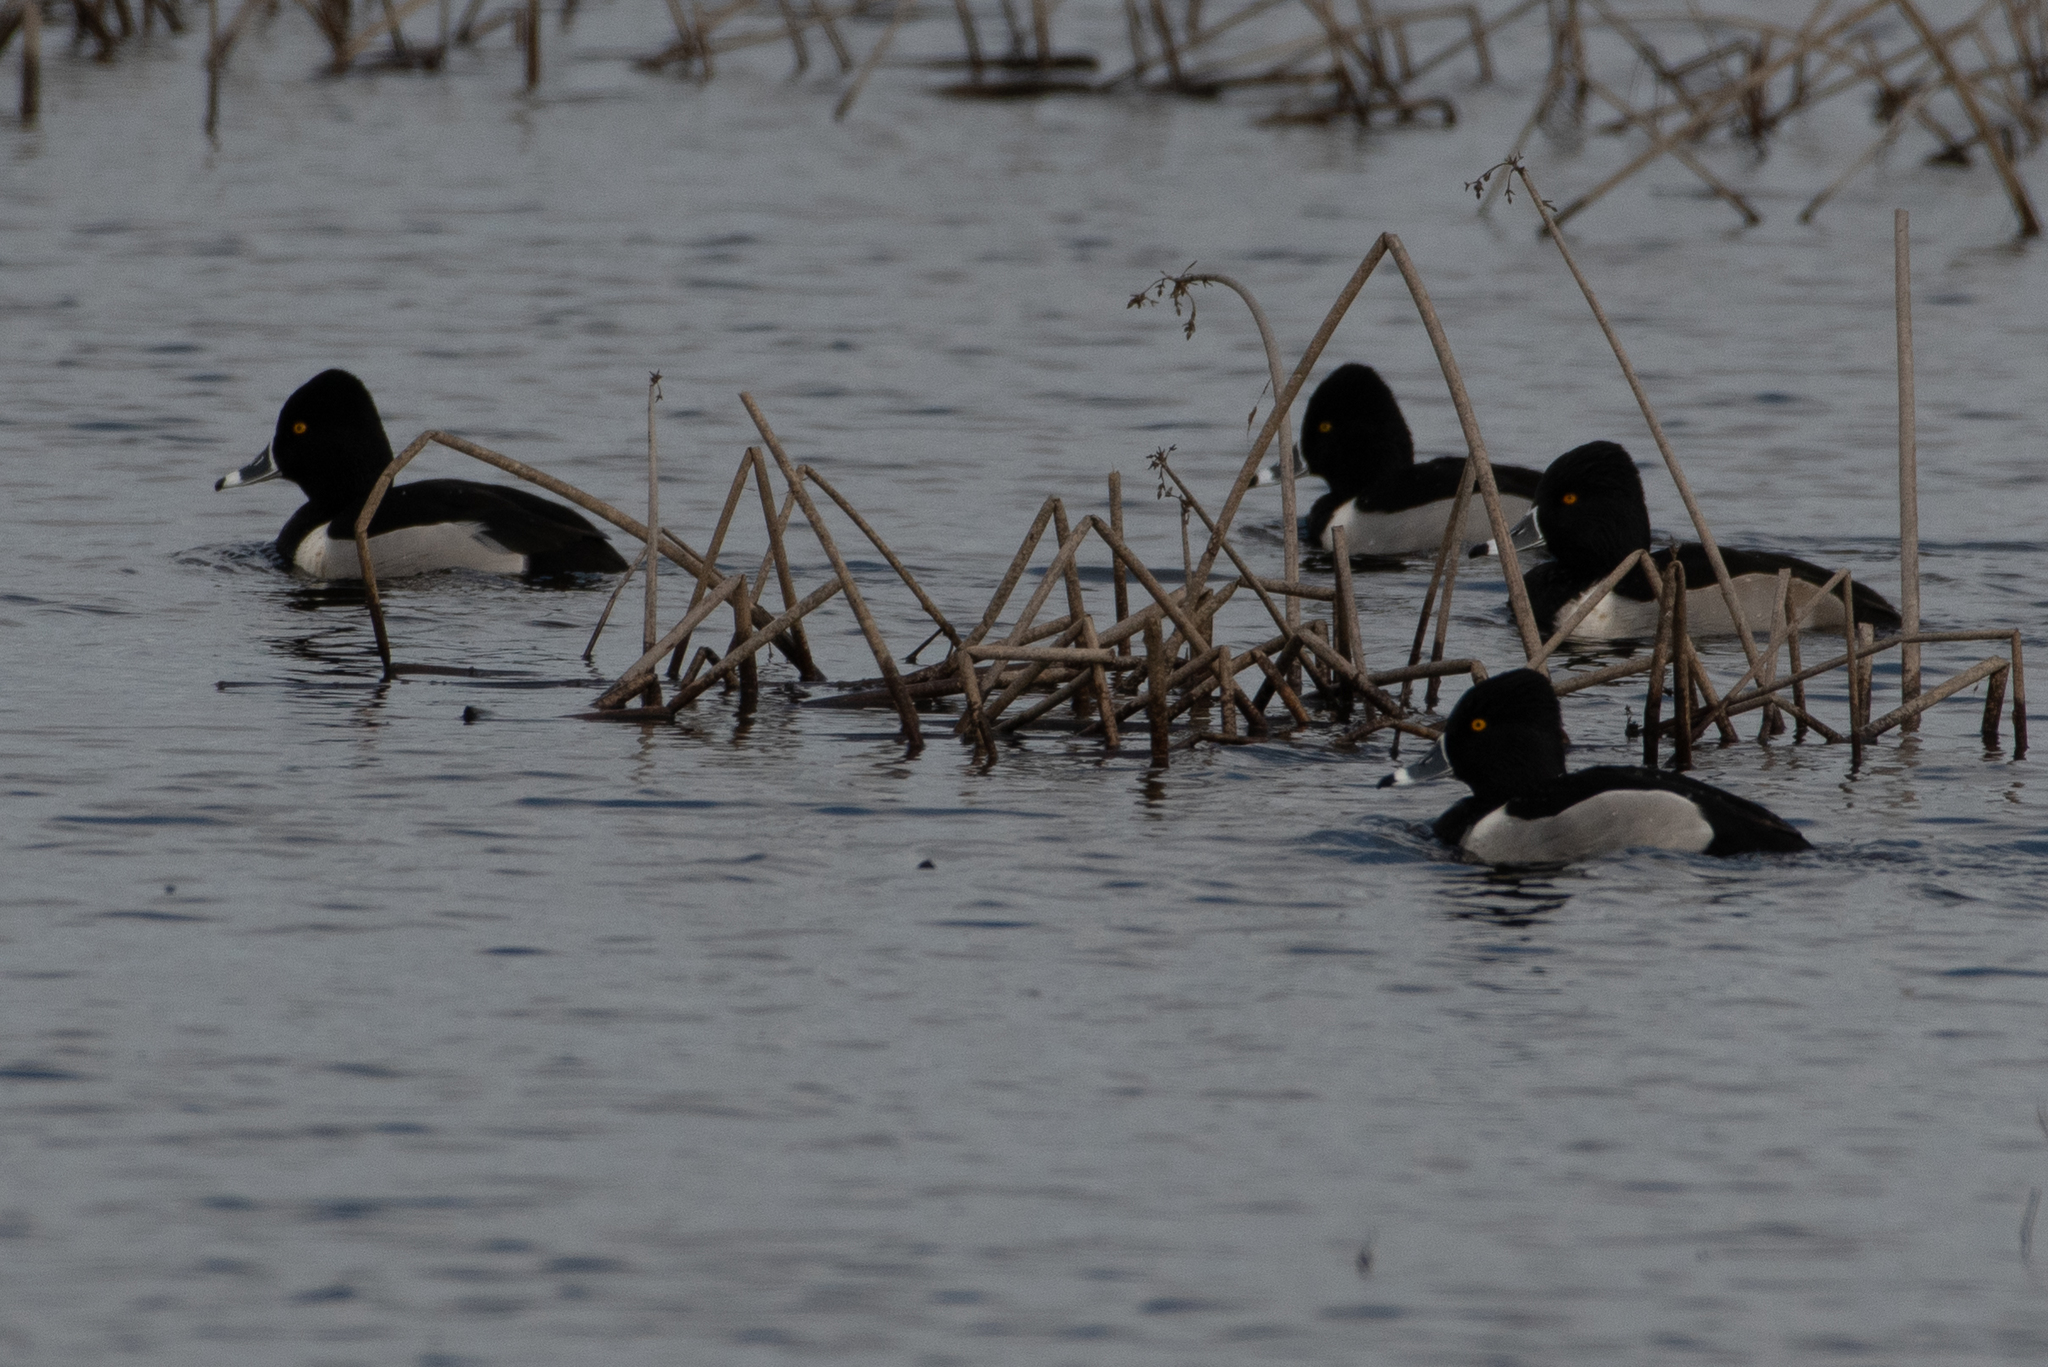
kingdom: Animalia
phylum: Chordata
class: Aves
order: Anseriformes
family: Anatidae
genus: Aythya
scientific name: Aythya collaris
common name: Ring-necked duck
